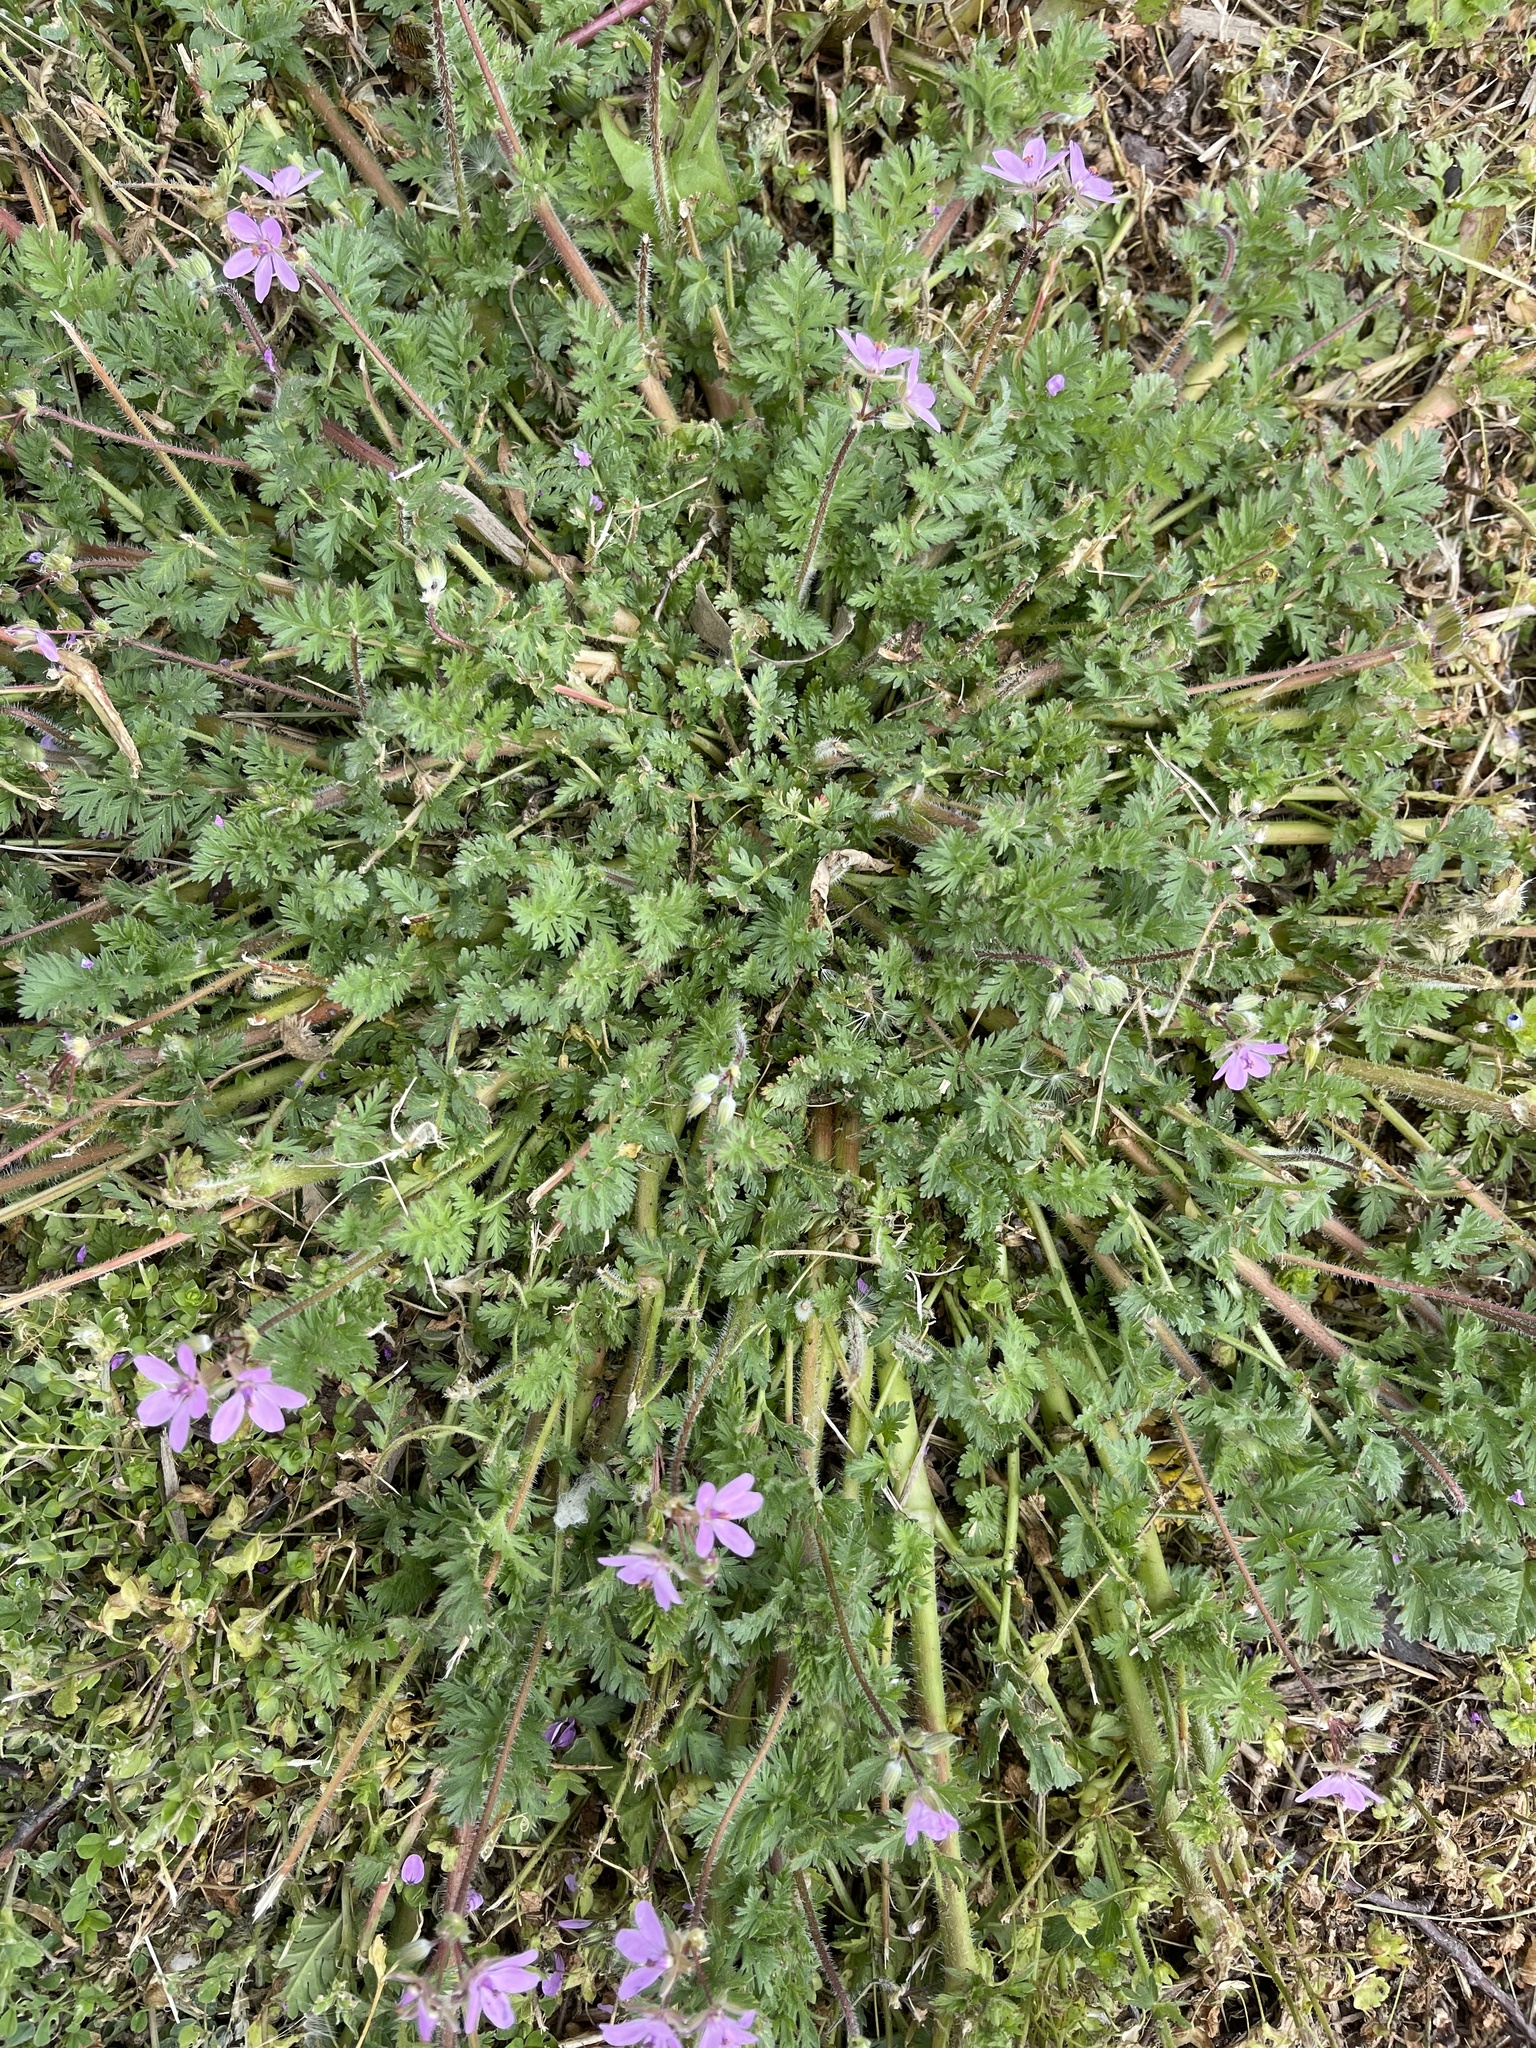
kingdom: Plantae
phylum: Tracheophyta
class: Magnoliopsida
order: Geraniales
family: Geraniaceae
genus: Erodium
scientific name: Erodium cicutarium
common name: Common stork's-bill
